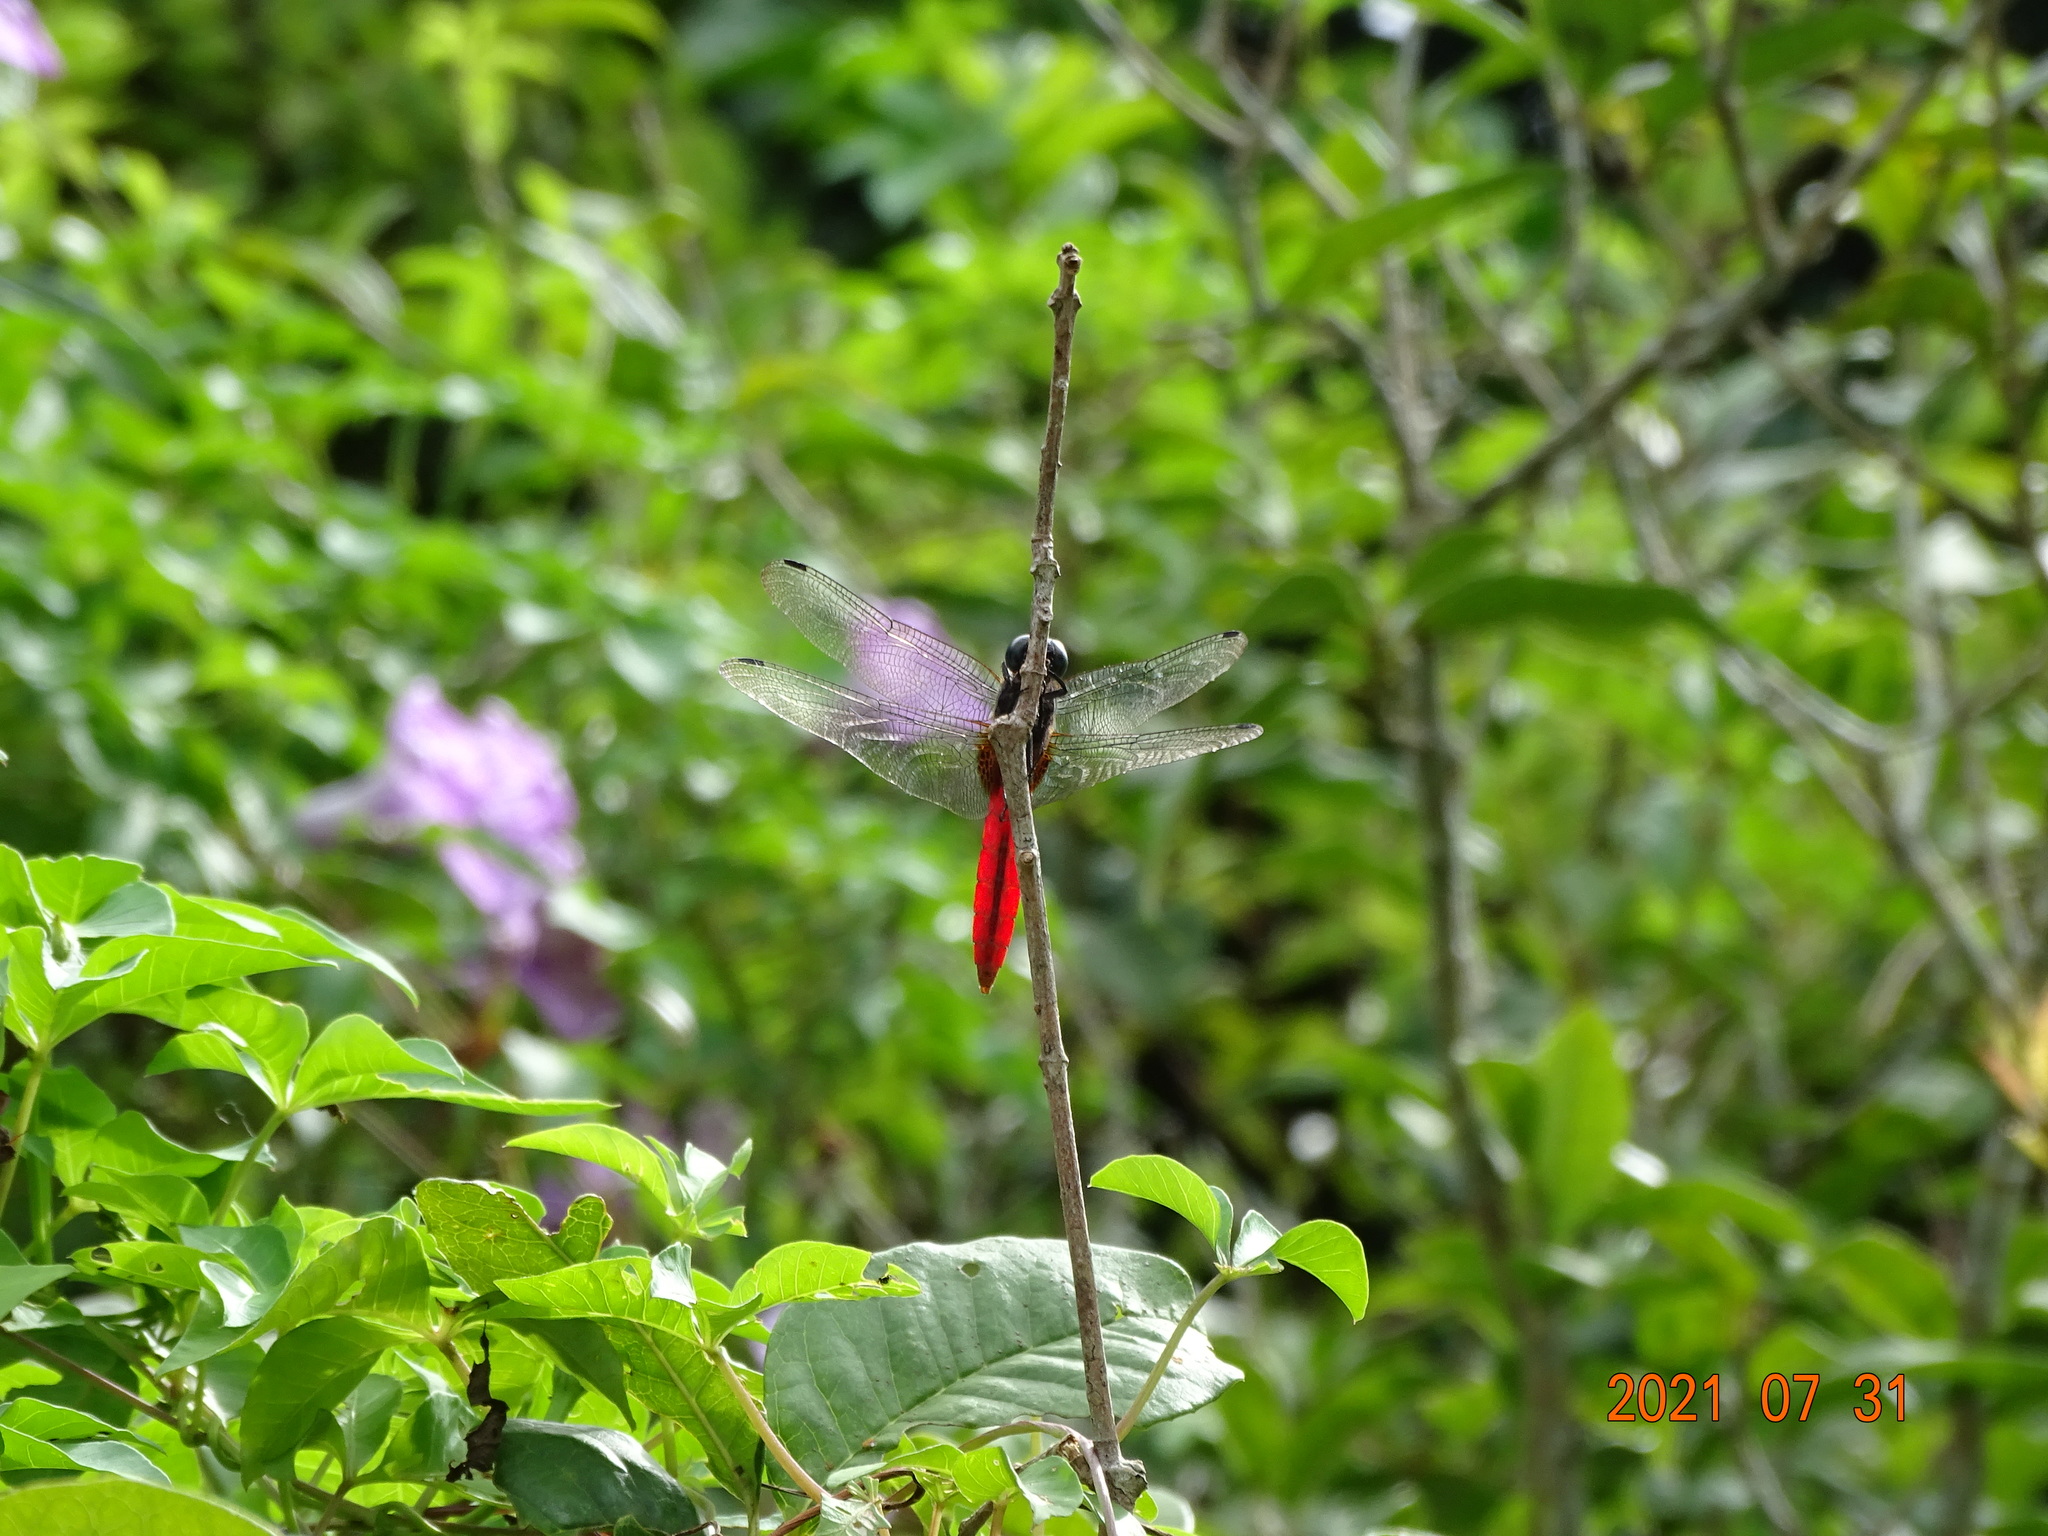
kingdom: Animalia
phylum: Arthropoda
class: Insecta
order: Odonata
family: Libellulidae
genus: Orthetrum
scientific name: Orthetrum pruinosum
